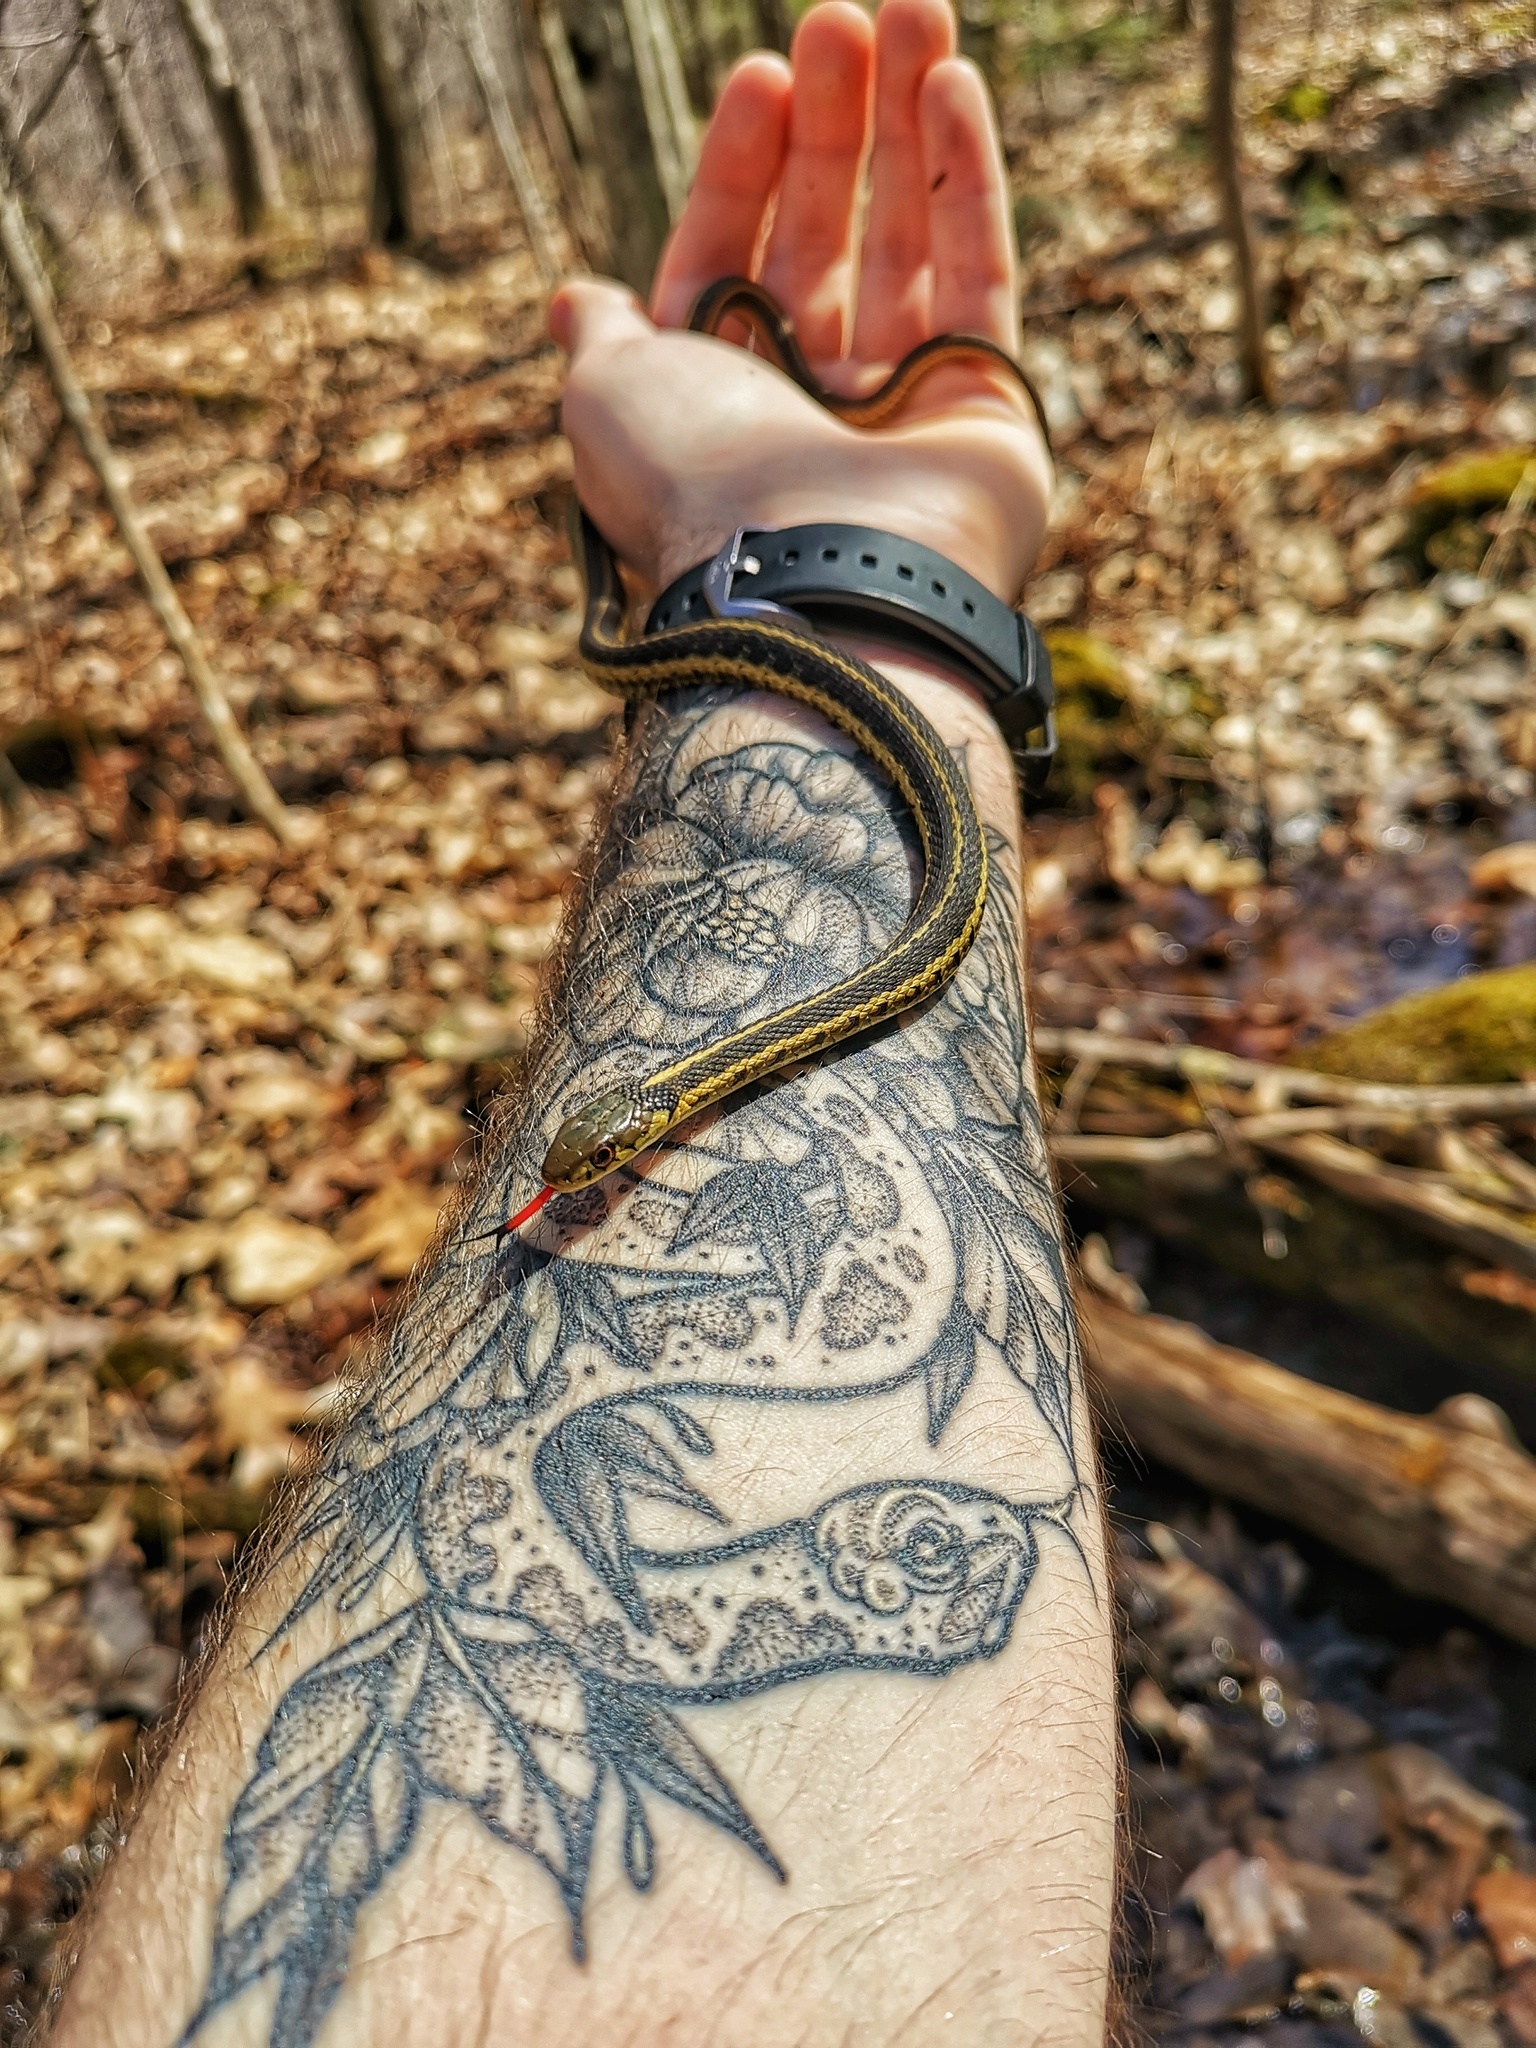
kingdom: Animalia
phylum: Chordata
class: Squamata
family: Colubridae
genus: Thamnophis
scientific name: Thamnophis sirtalis
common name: Common garter snake
